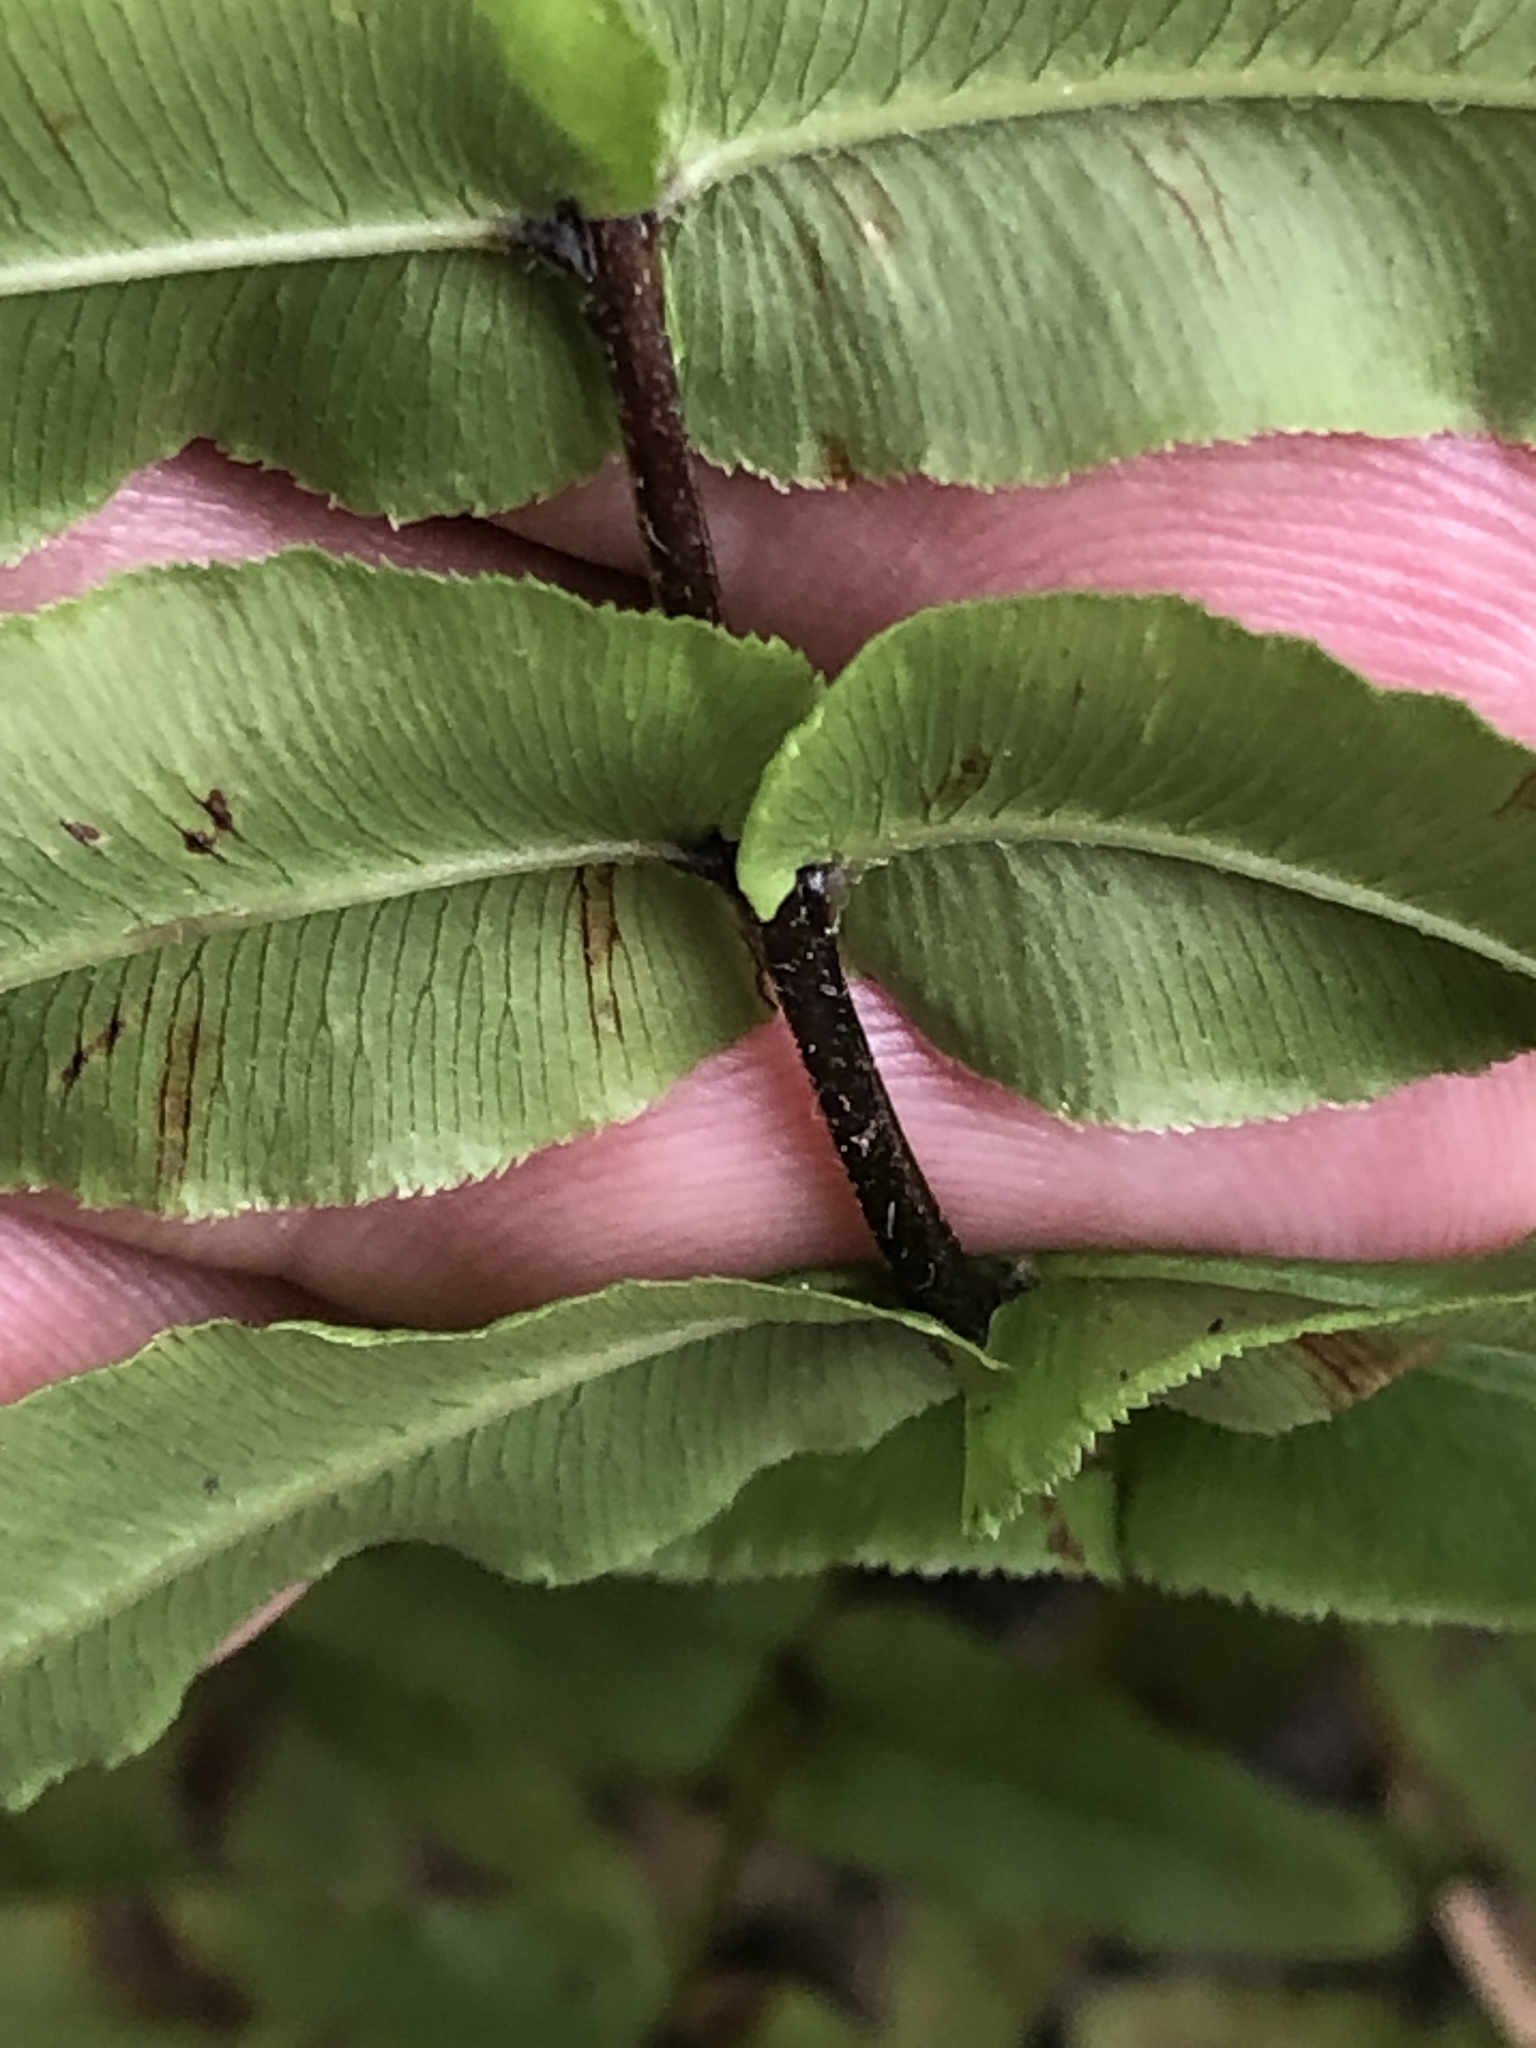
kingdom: Plantae
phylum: Tracheophyta
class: Polypodiopsida
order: Polypodiales
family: Pteridaceae
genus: Pteris
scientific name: Pteris vittata
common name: Ladder brake
